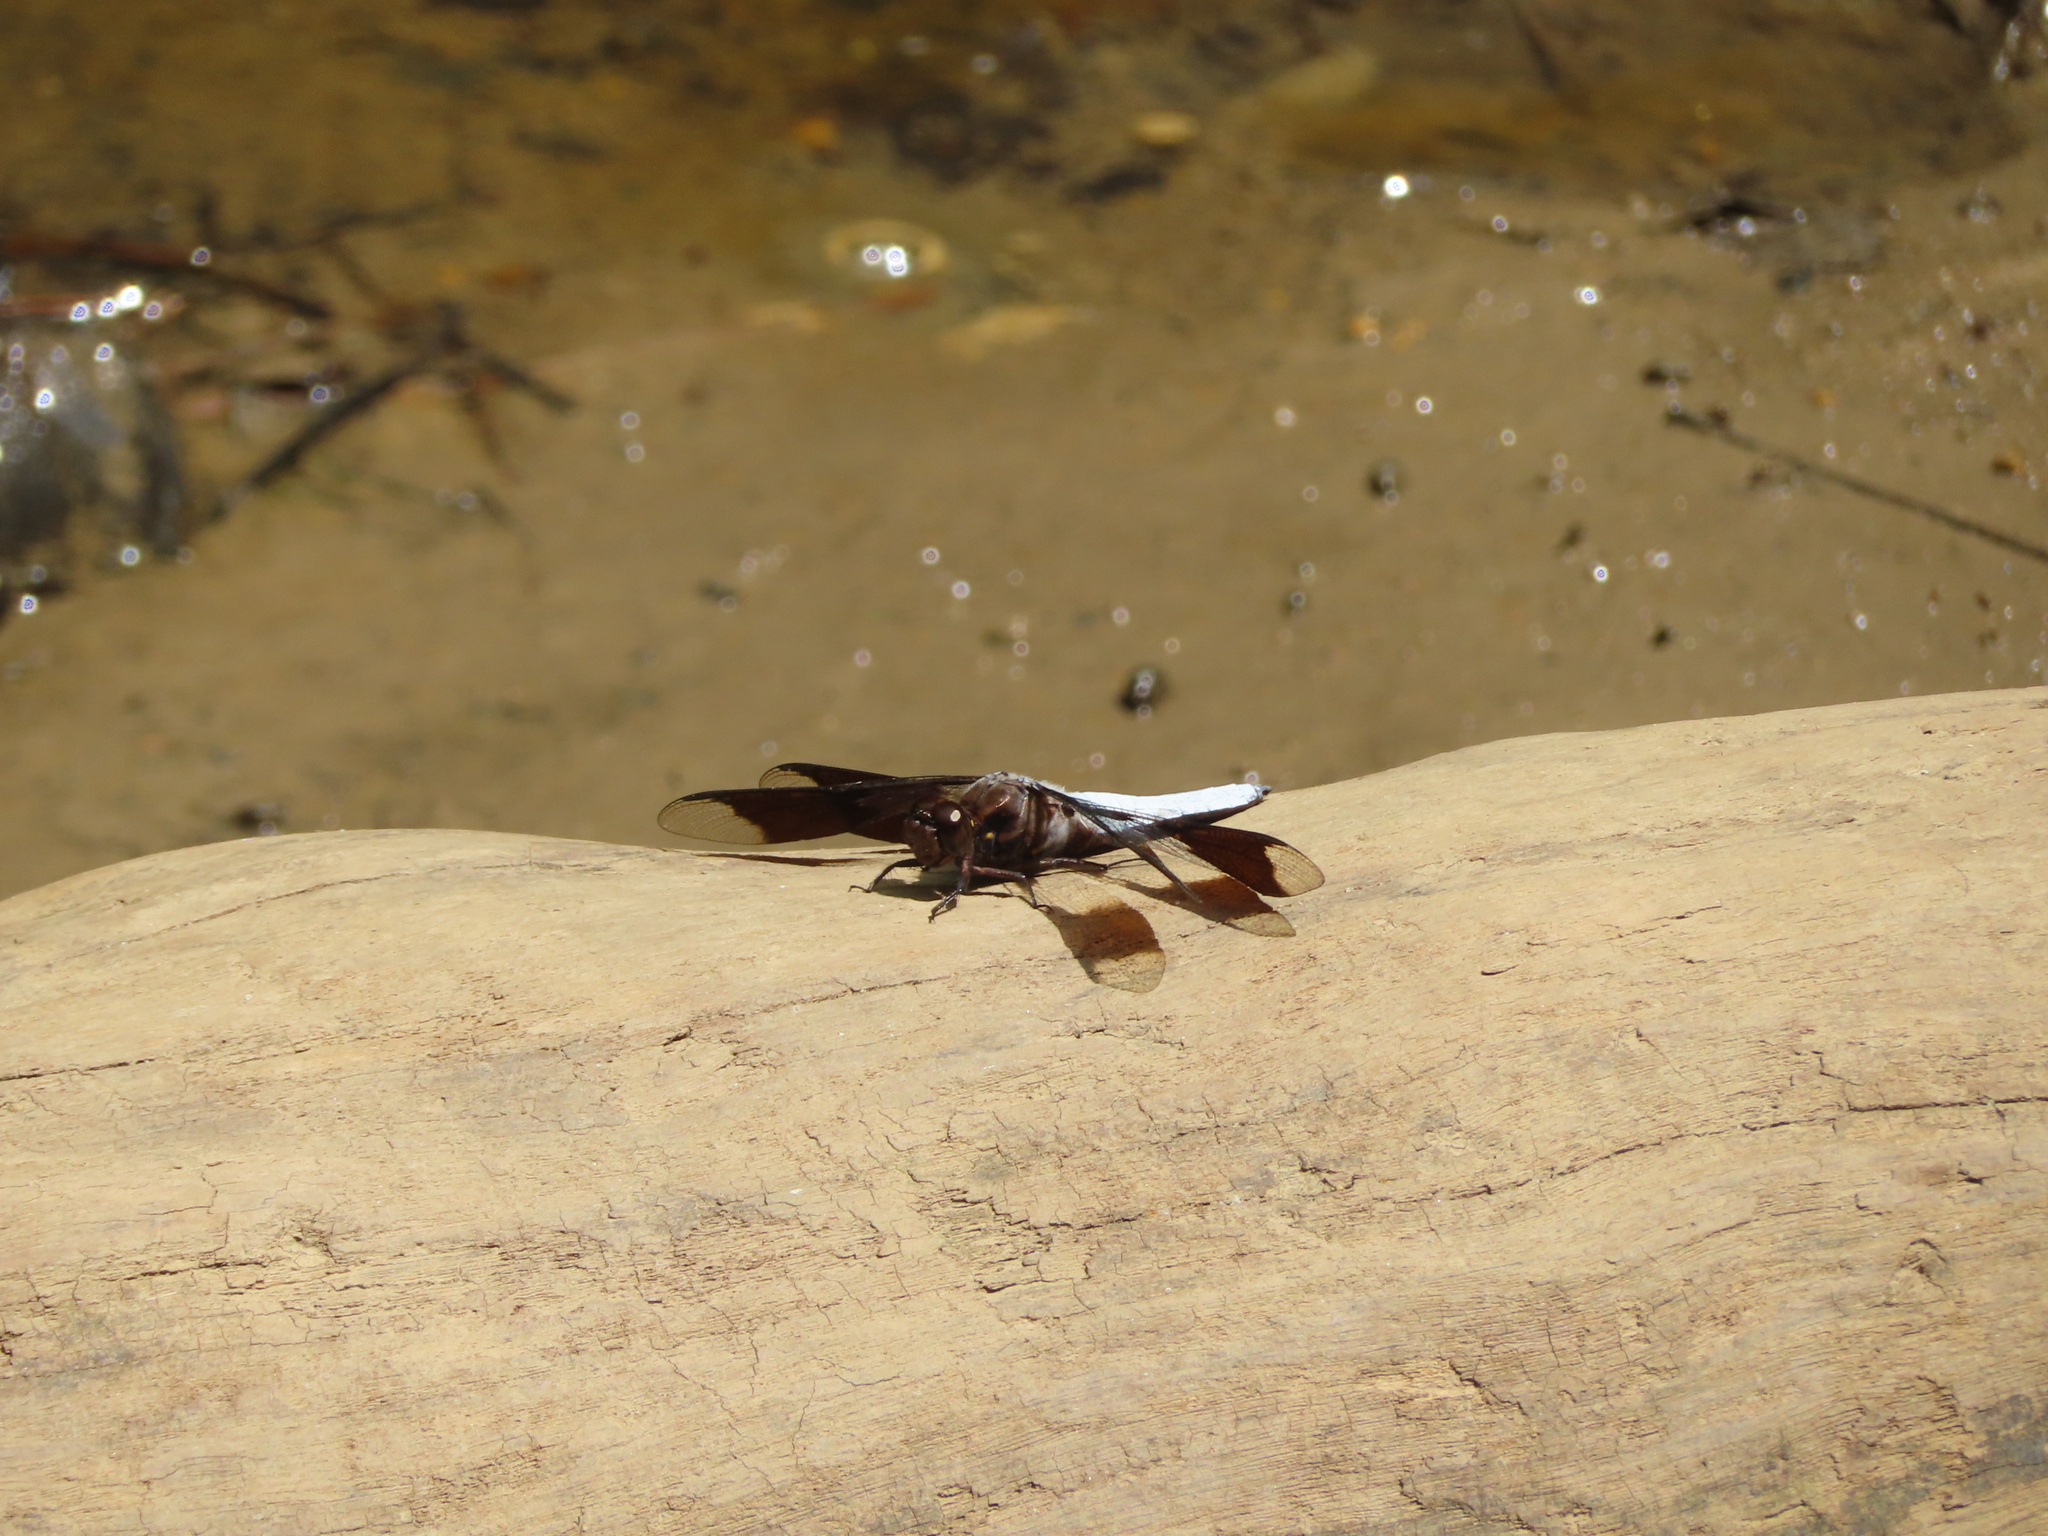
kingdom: Animalia
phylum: Arthropoda
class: Insecta
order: Odonata
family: Libellulidae
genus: Plathemis
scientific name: Plathemis lydia
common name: Common whitetail
